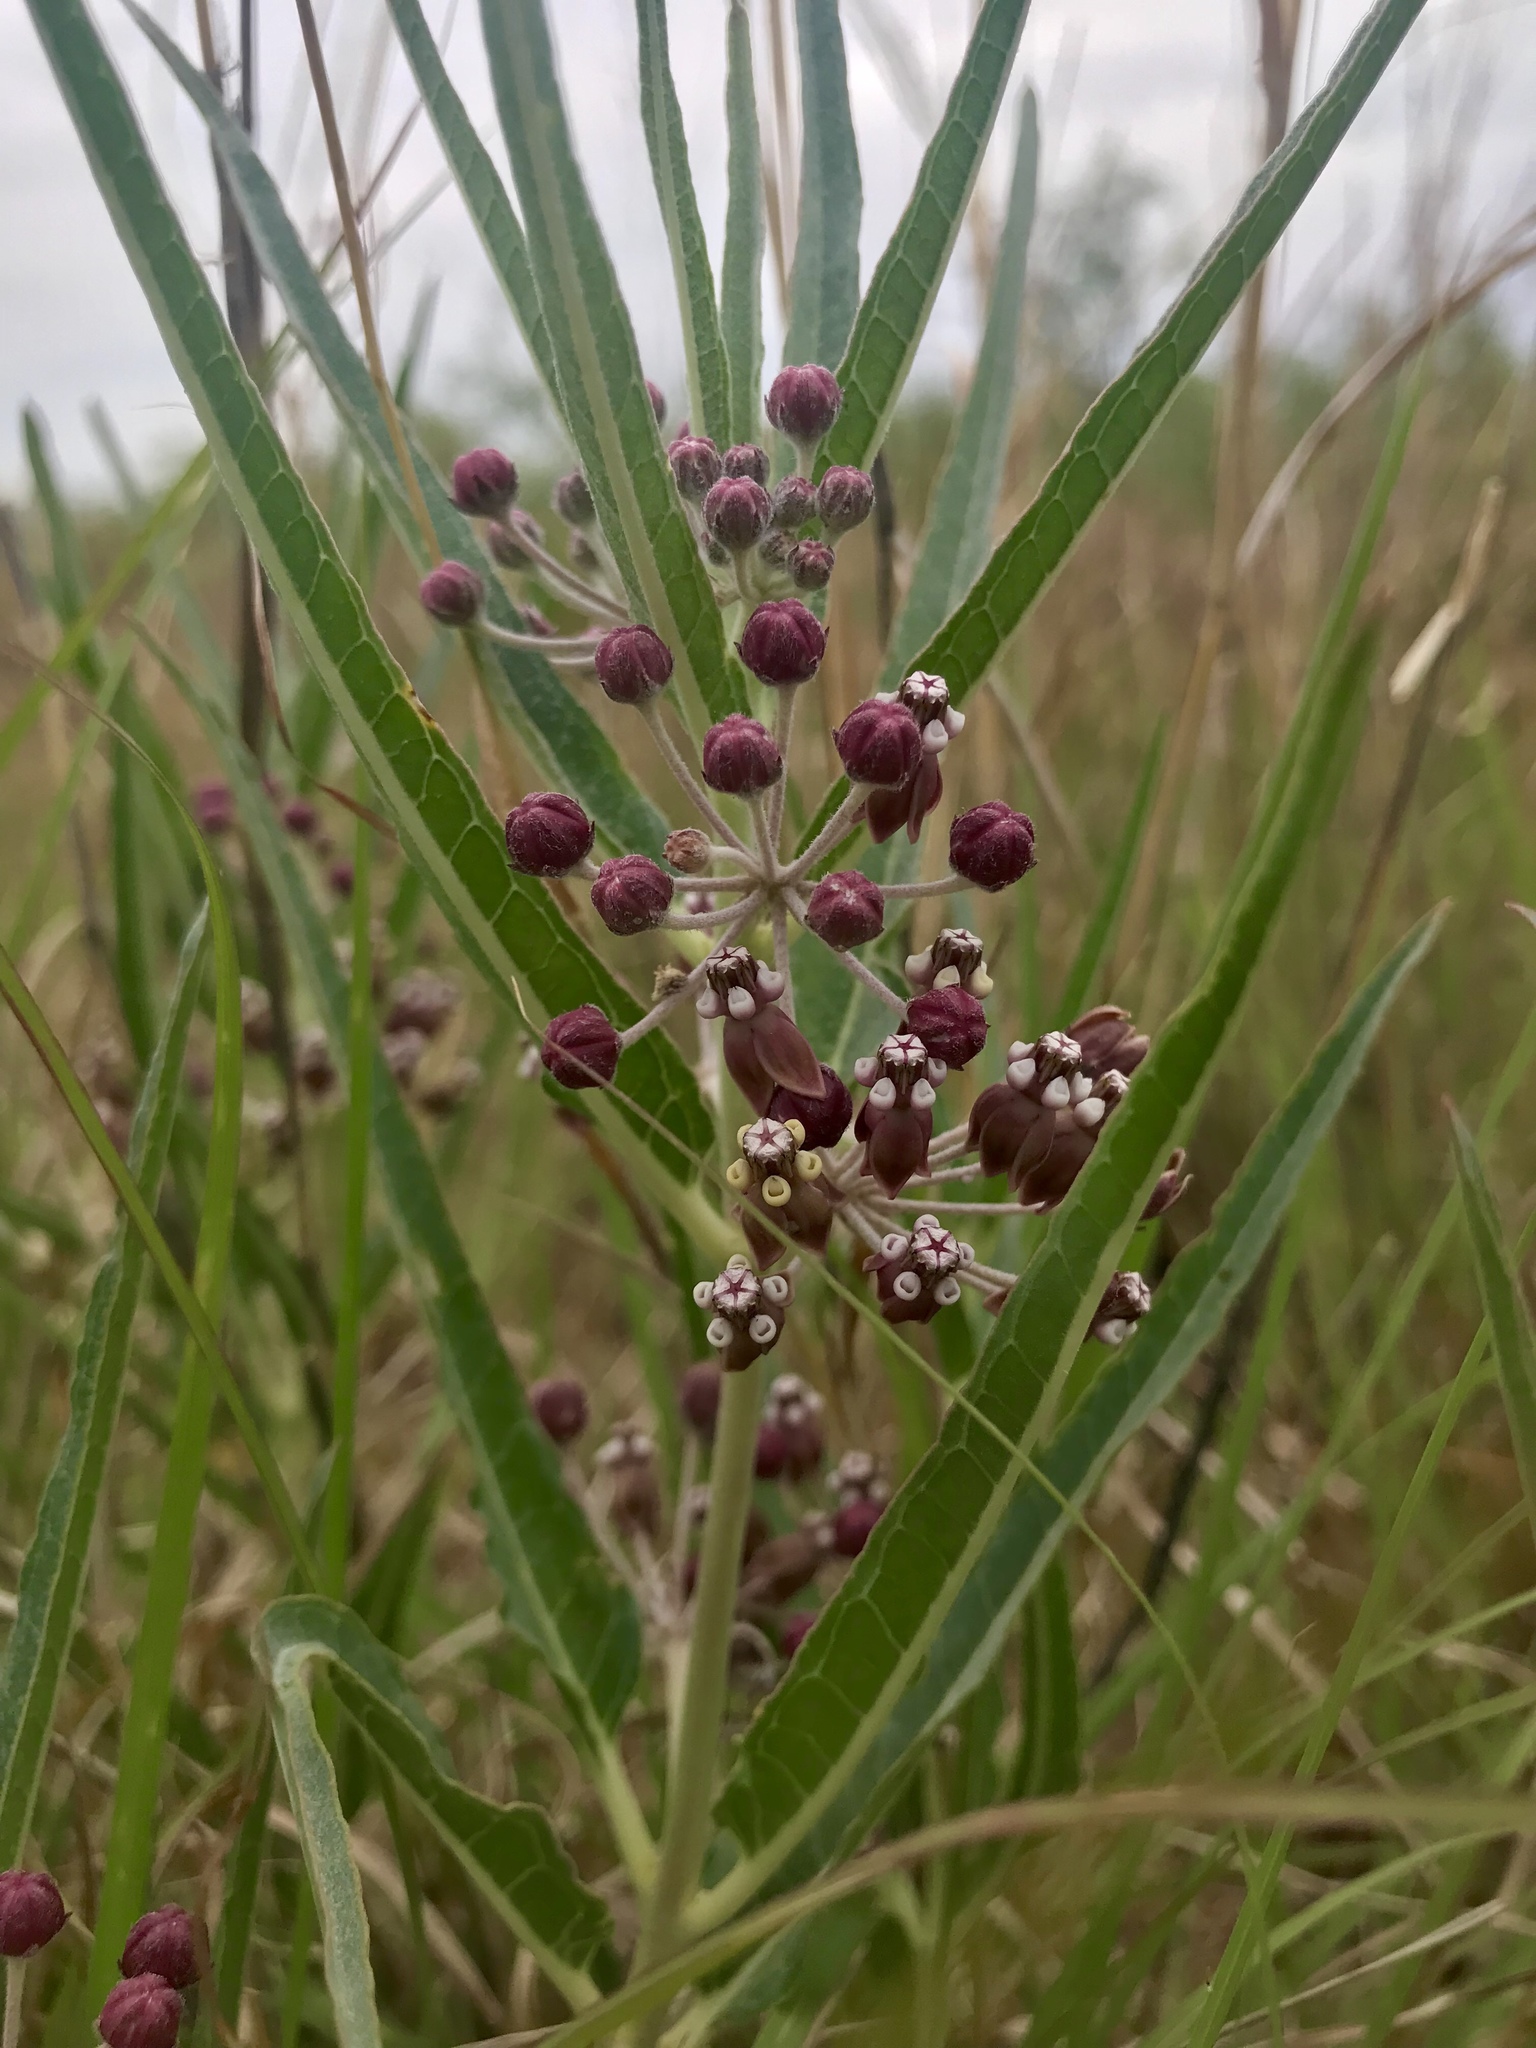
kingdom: Plantae
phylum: Tracheophyta
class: Magnoliopsida
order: Gentianales
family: Apocynaceae
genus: Asclepias
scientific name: Asclepias brachystephana
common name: Shortcrown milkweed
